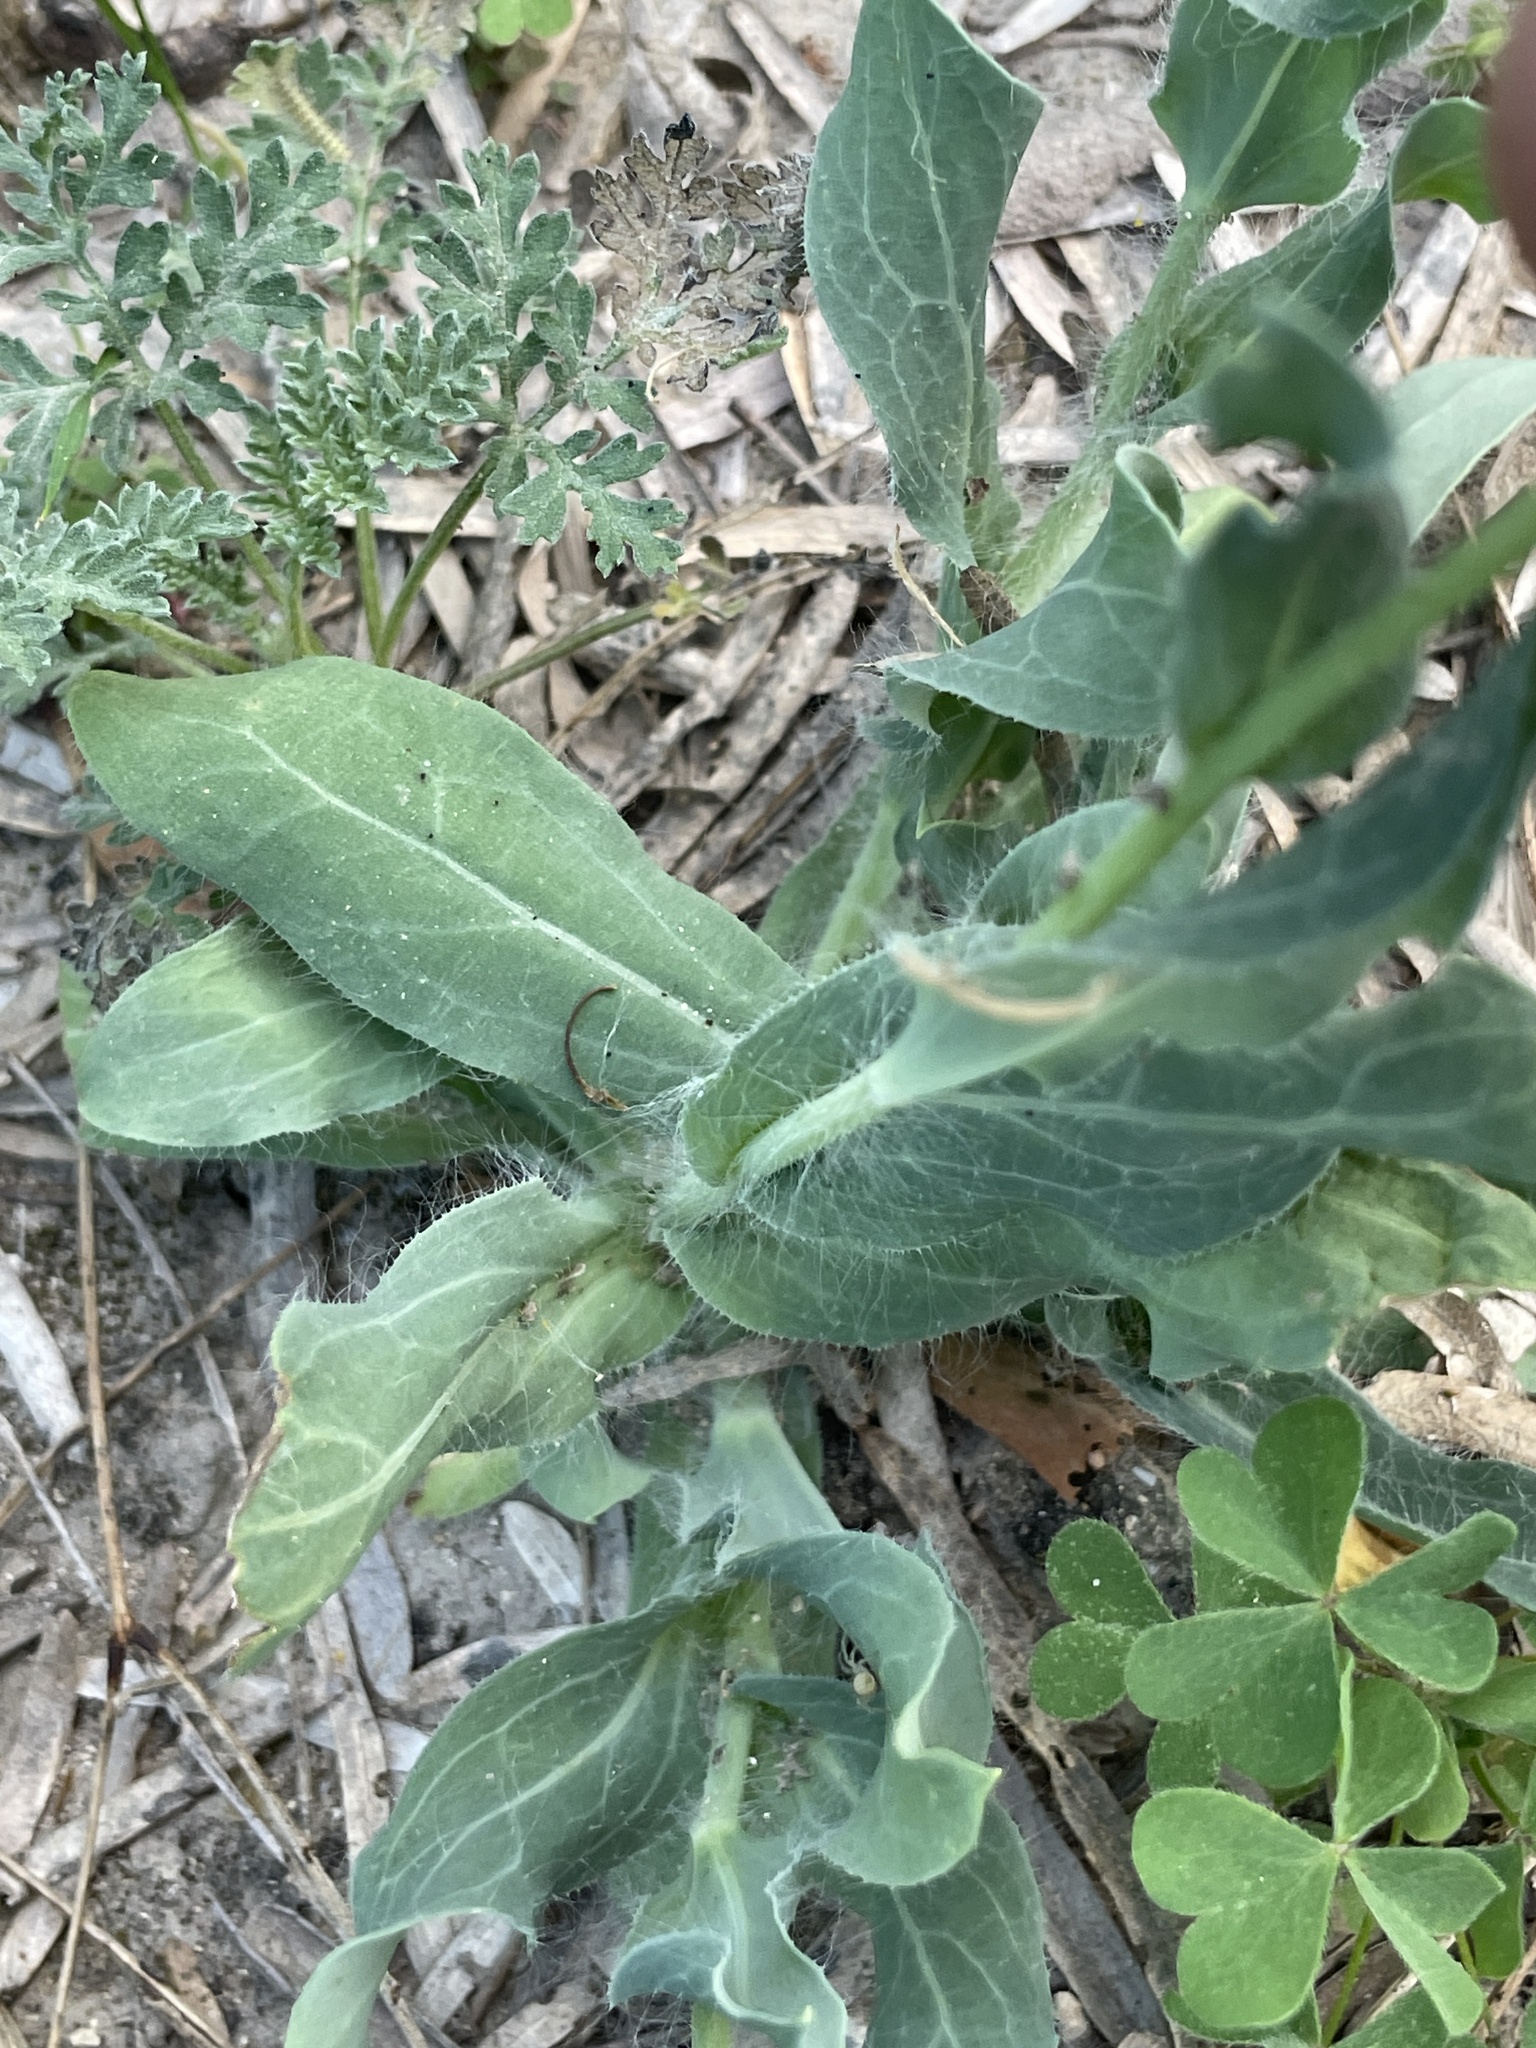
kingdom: Plantae
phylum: Tracheophyta
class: Magnoliopsida
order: Asterales
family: Asteraceae
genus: Amblyolepis
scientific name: Amblyolepis setigera
